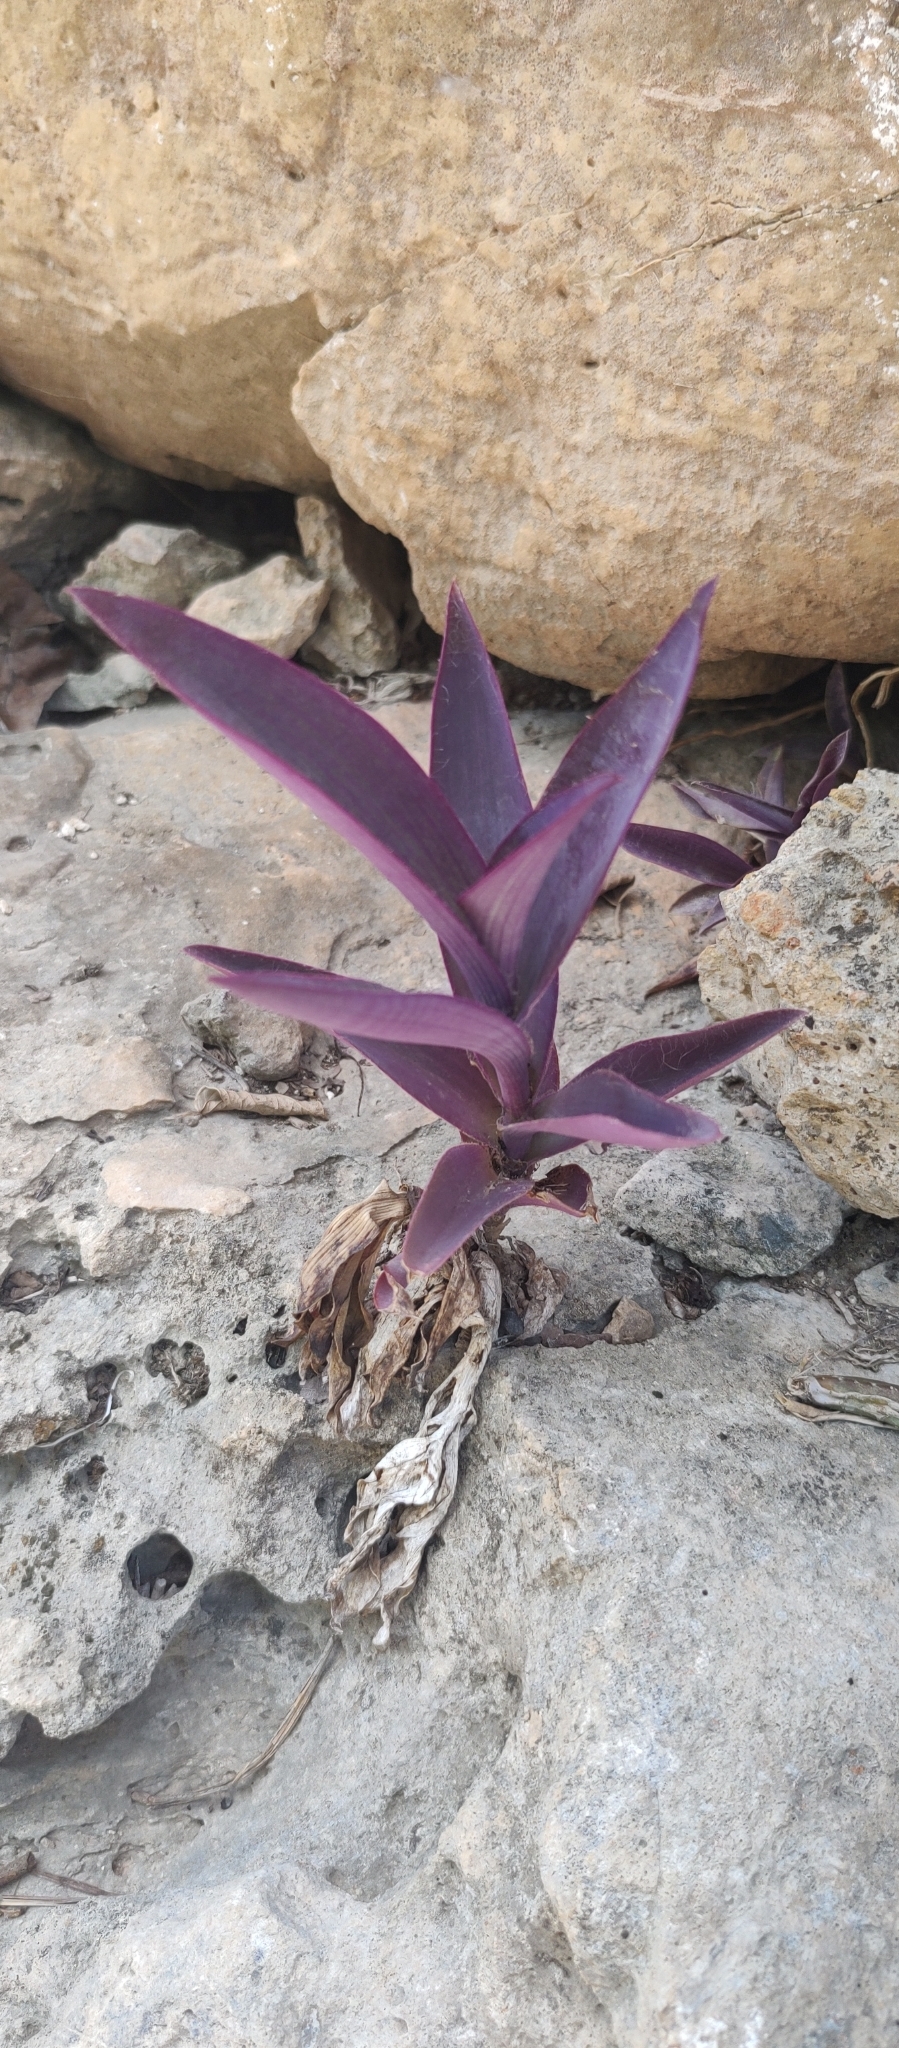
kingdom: Plantae
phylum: Tracheophyta
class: Liliopsida
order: Commelinales
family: Commelinaceae
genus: Tradescantia
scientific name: Tradescantia pallida
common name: Purpleheart
